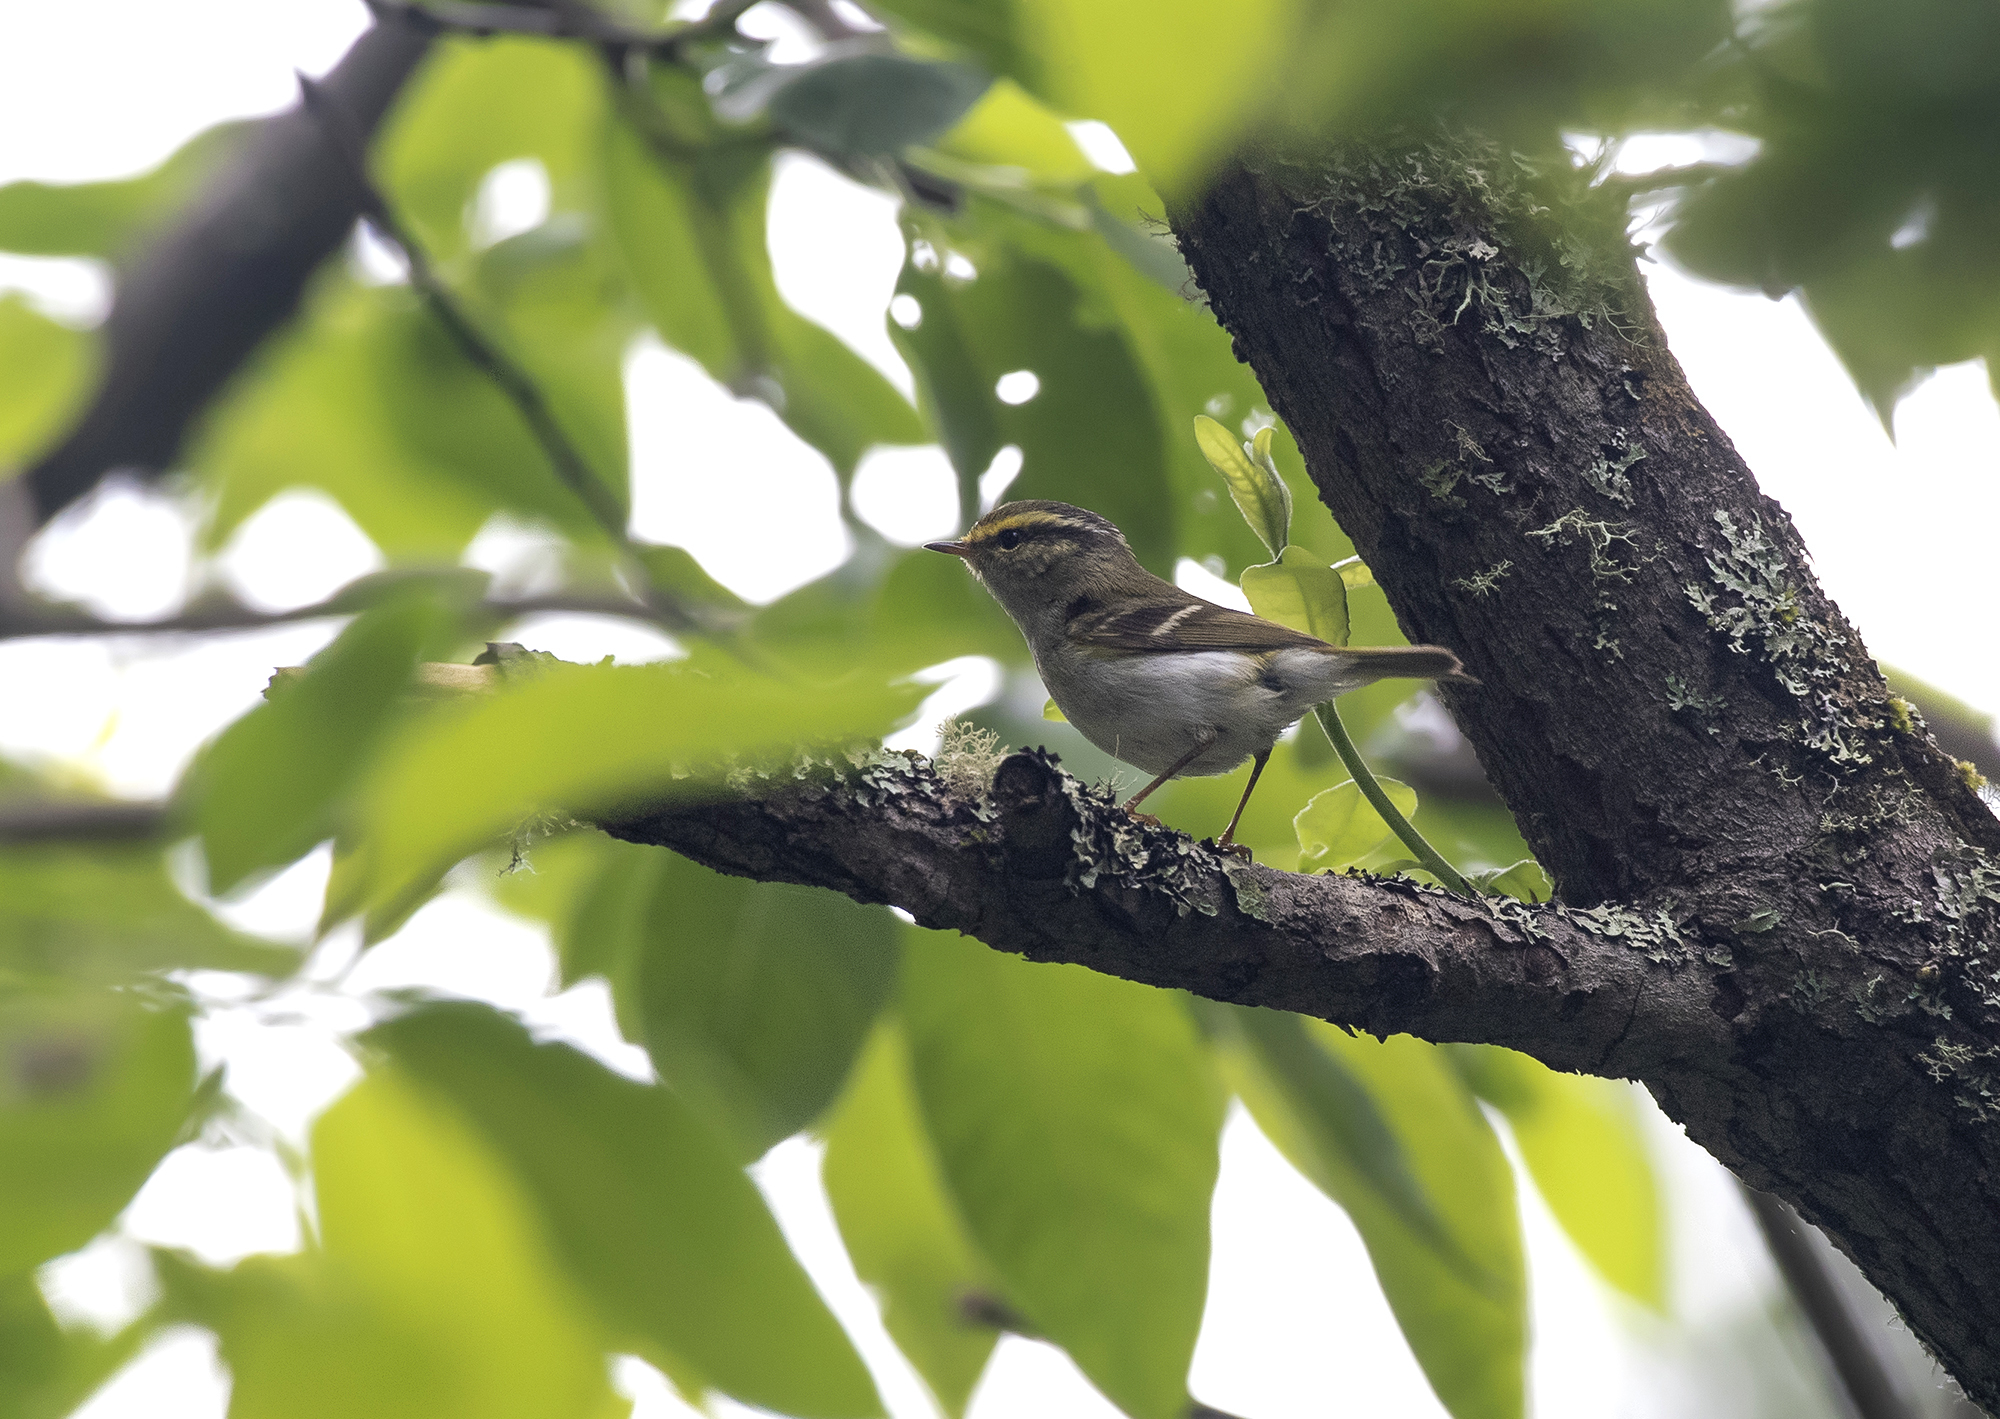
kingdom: Animalia
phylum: Chordata
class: Aves
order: Passeriformes
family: Phylloscopidae
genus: Phylloscopus
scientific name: Phylloscopus proregulus
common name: Pallas's leaf warbler
